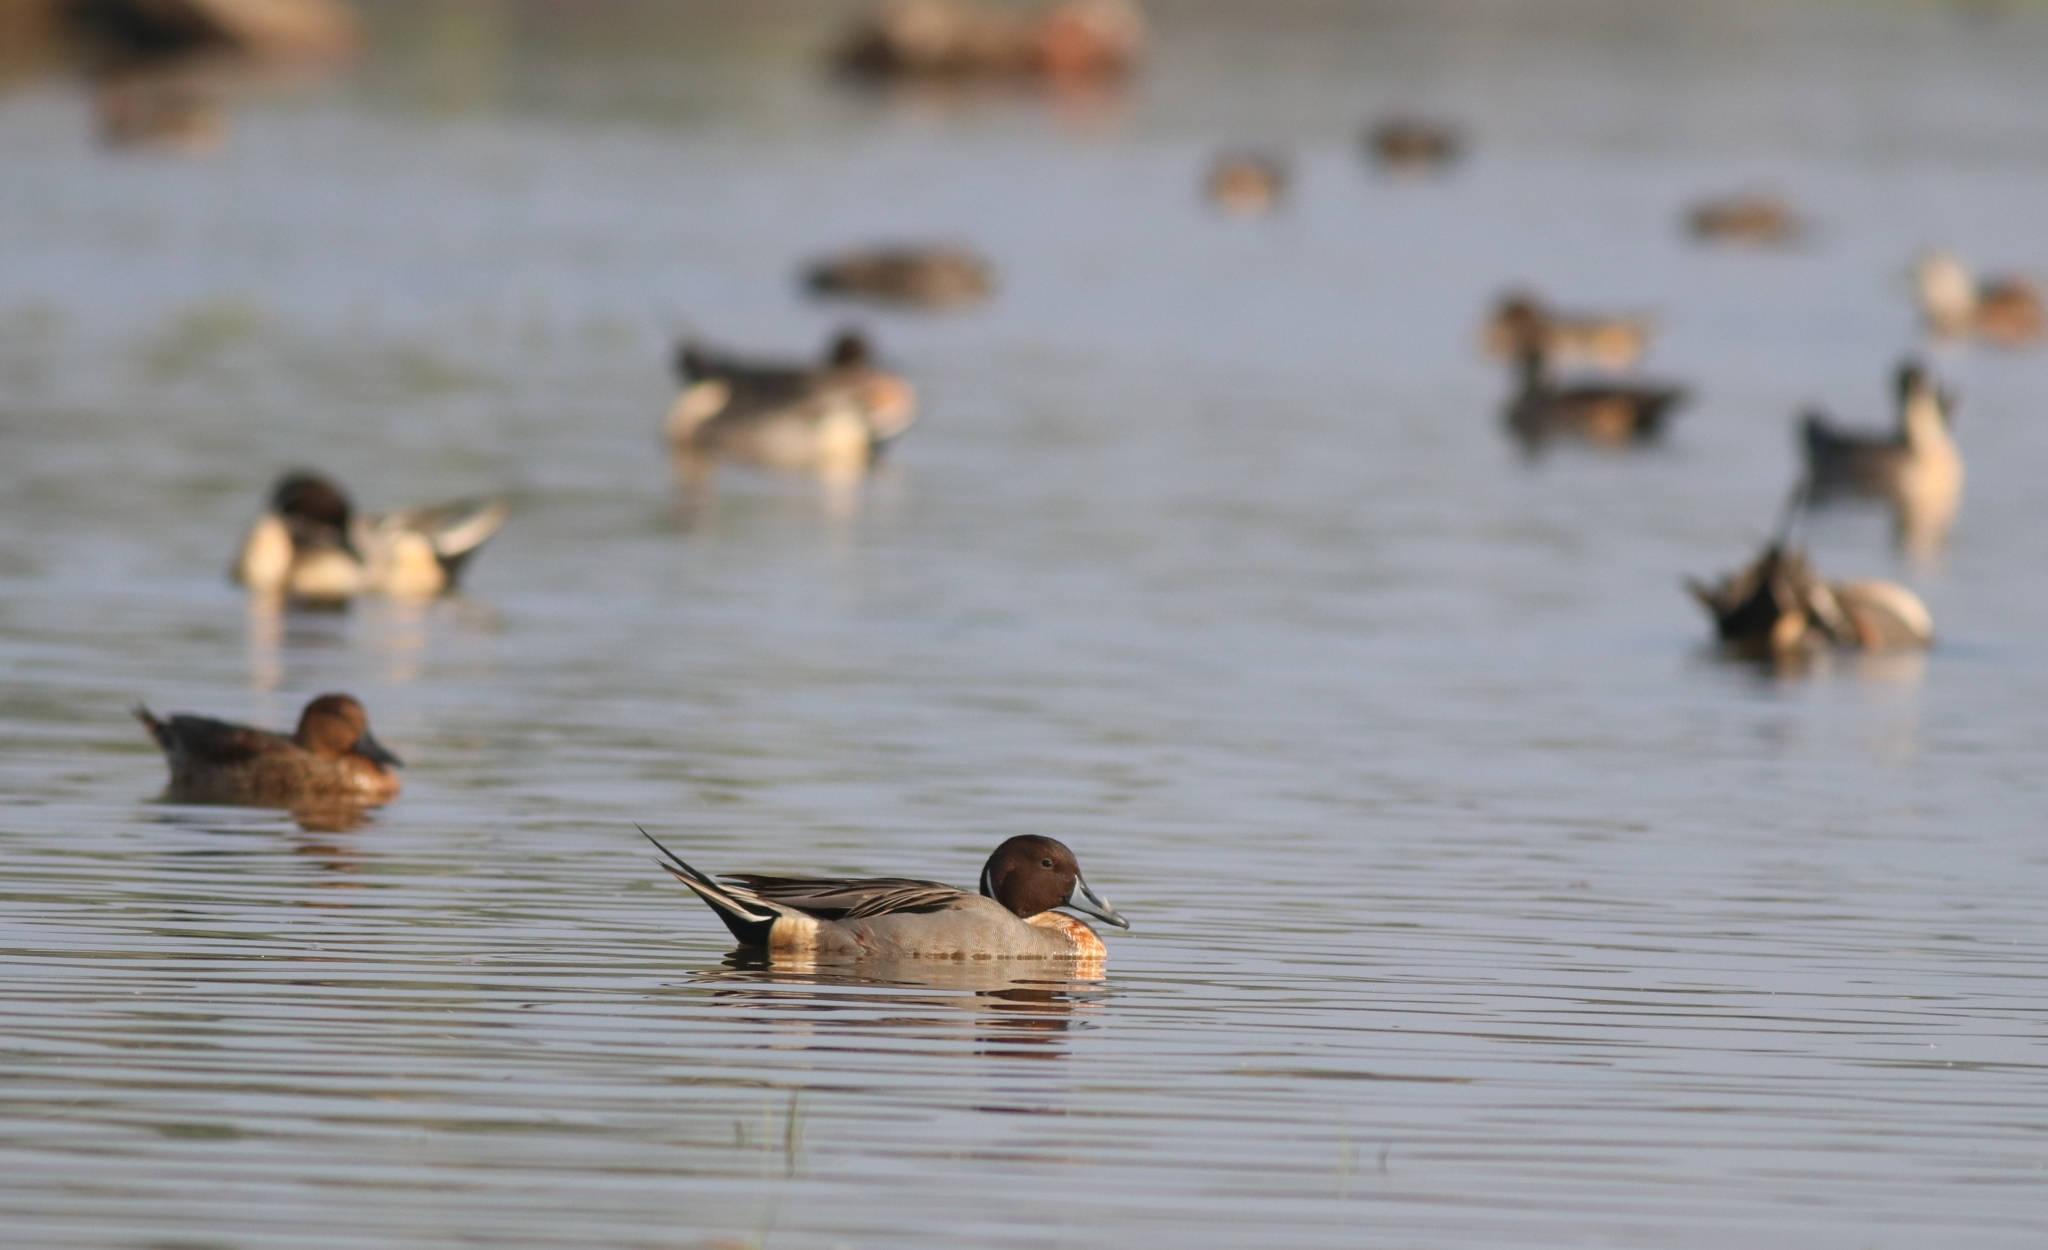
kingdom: Animalia
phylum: Chordata
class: Aves
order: Anseriformes
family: Anatidae
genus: Anas
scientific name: Anas acuta
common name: Northern pintail
